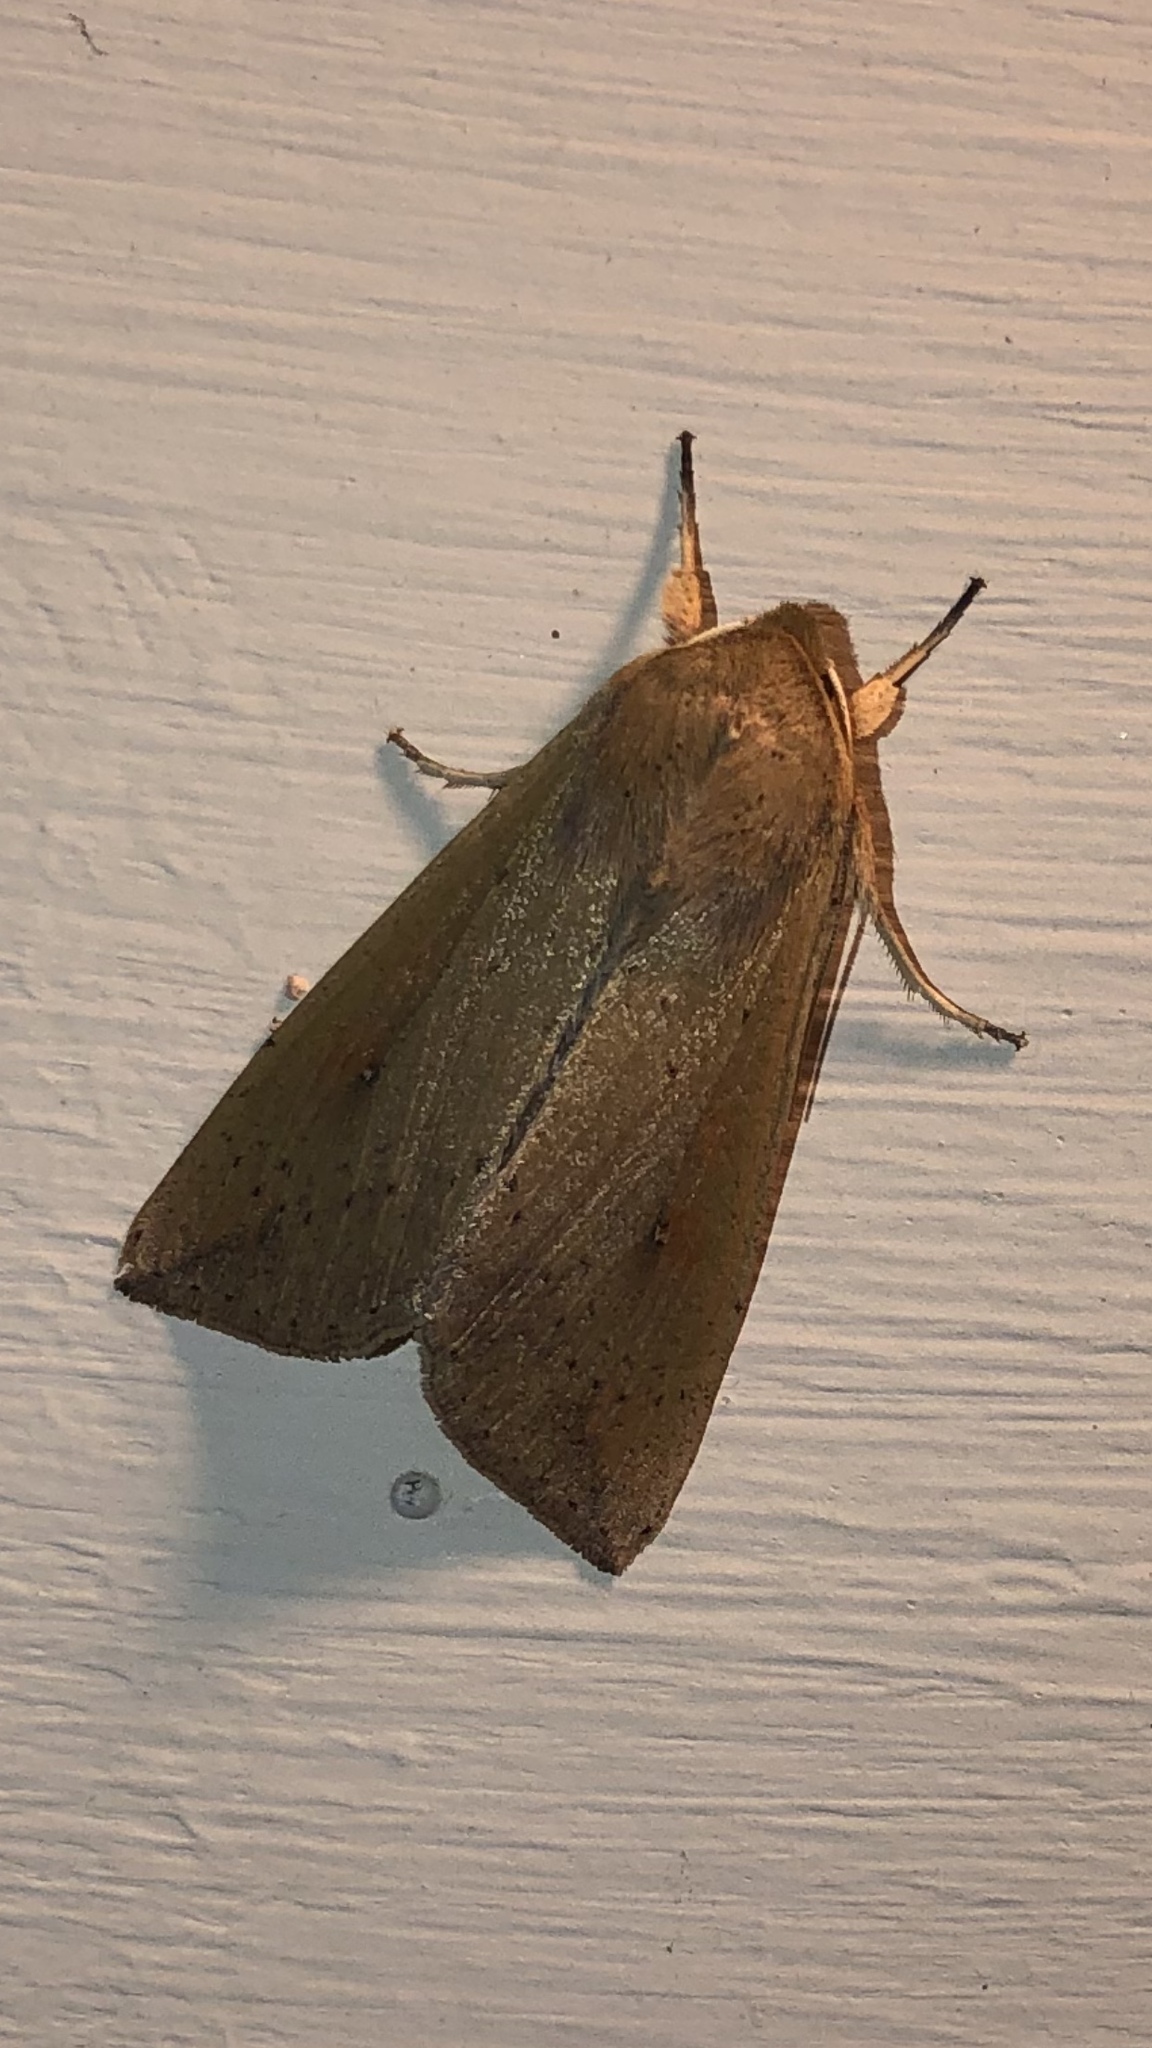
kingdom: Animalia
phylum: Arthropoda
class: Insecta
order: Lepidoptera
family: Noctuidae
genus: Mythimna
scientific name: Mythimna unipuncta
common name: White-speck
